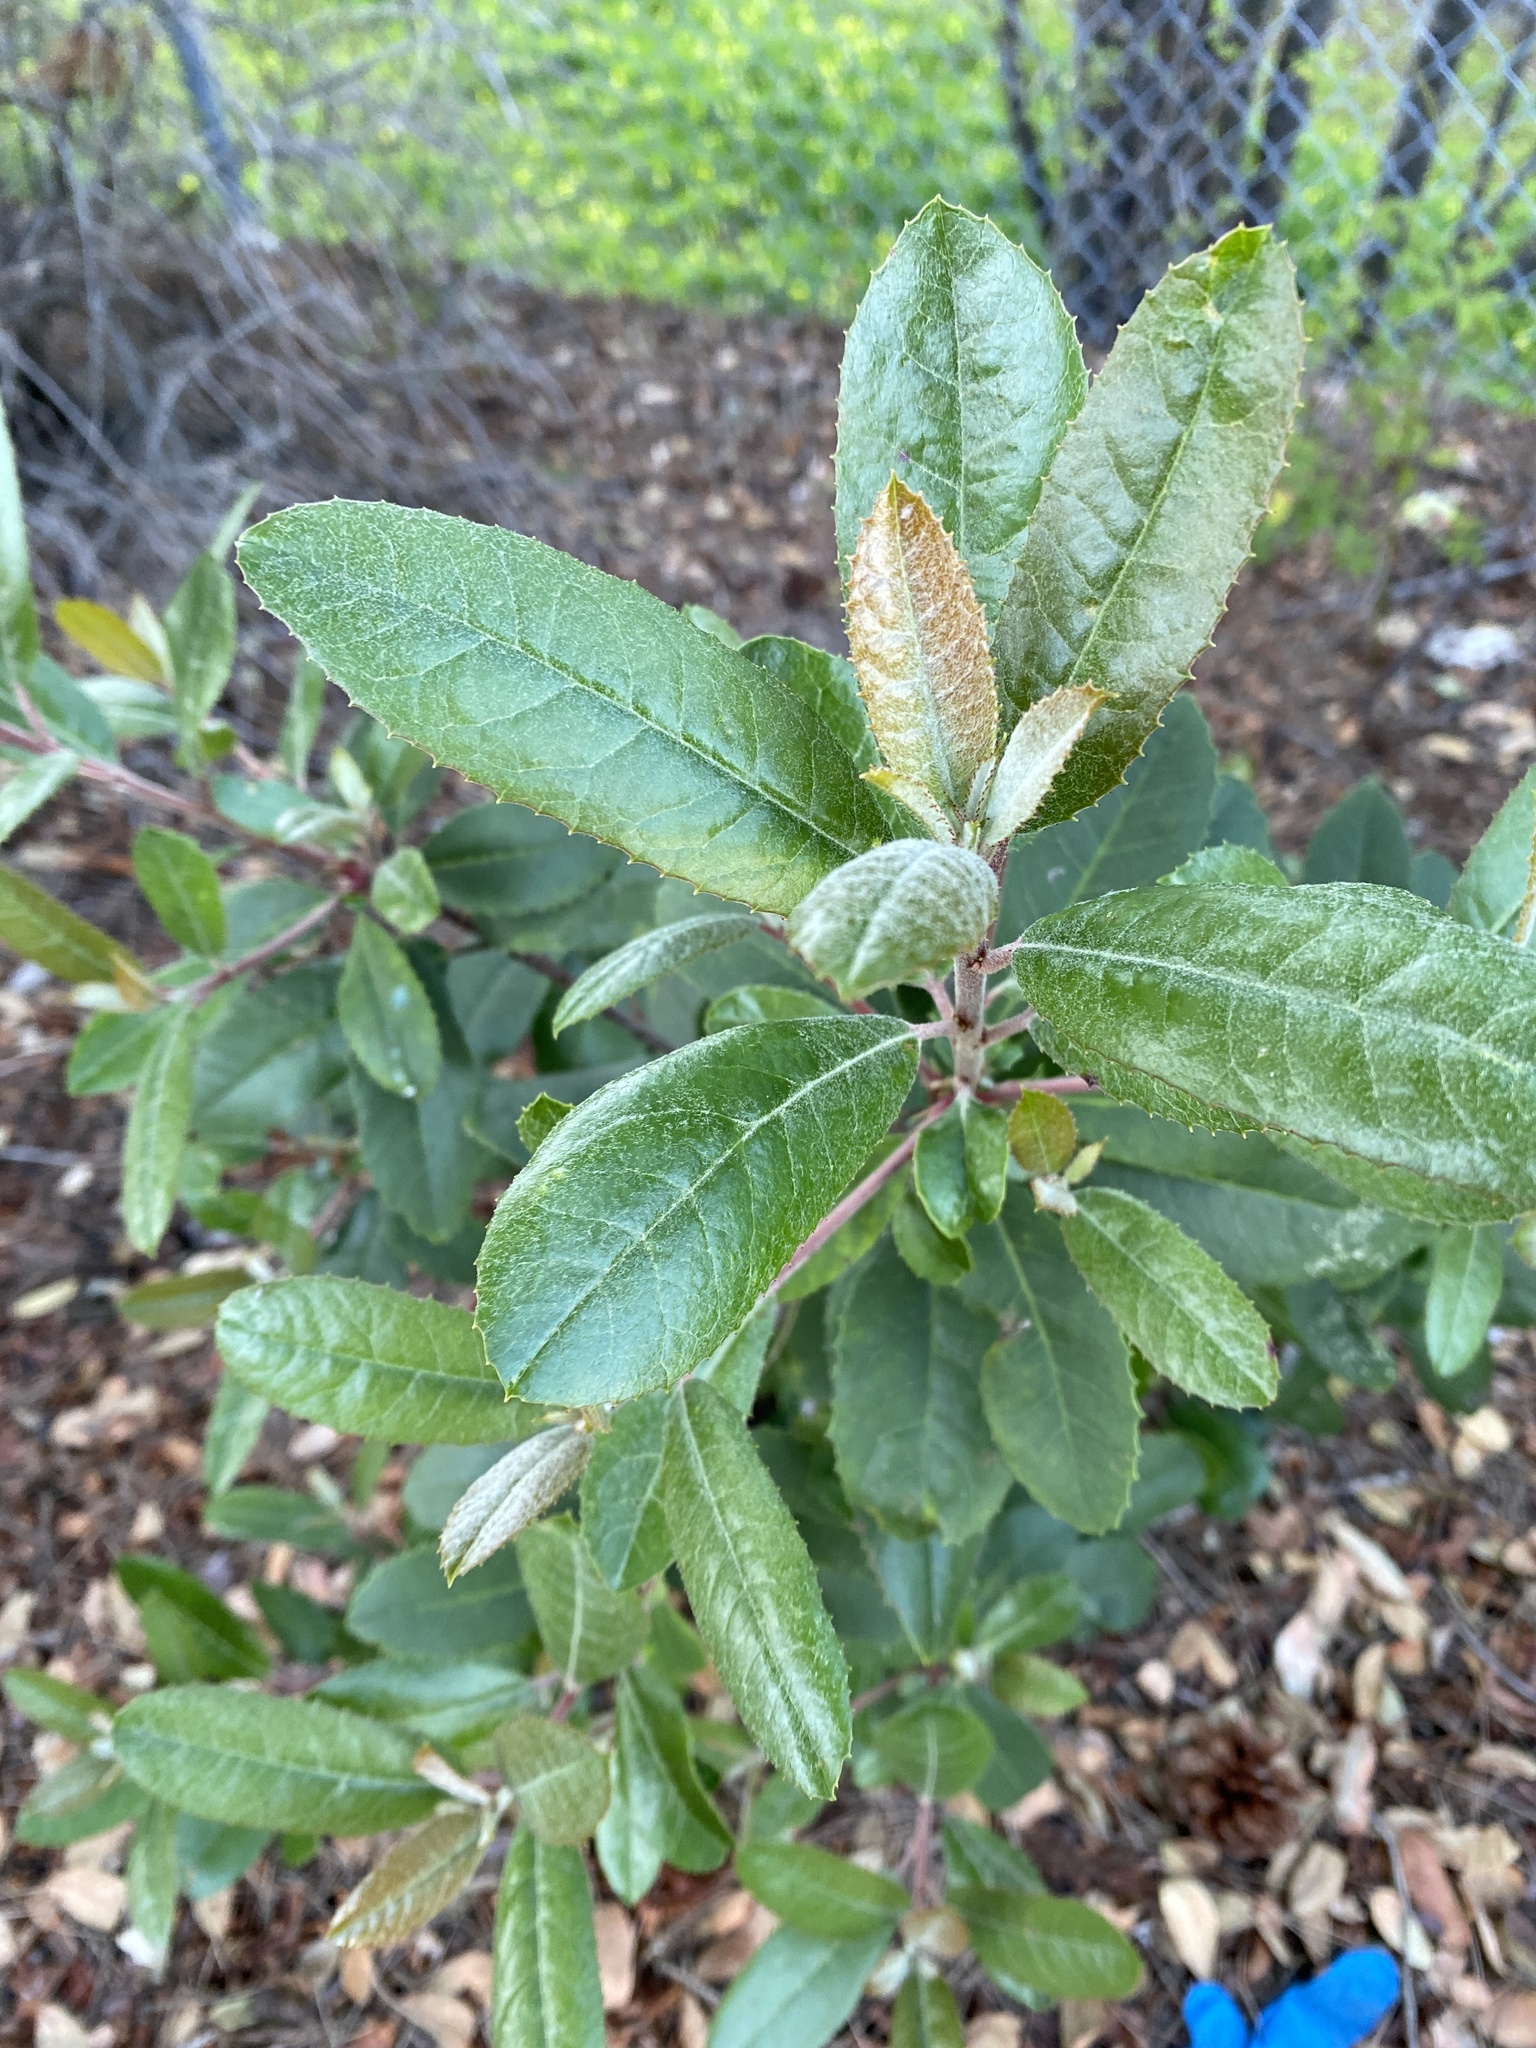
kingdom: Plantae
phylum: Tracheophyta
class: Magnoliopsida
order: Rosales
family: Rosaceae
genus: Heteromeles
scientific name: Heteromeles arbutifolia
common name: California-holly
